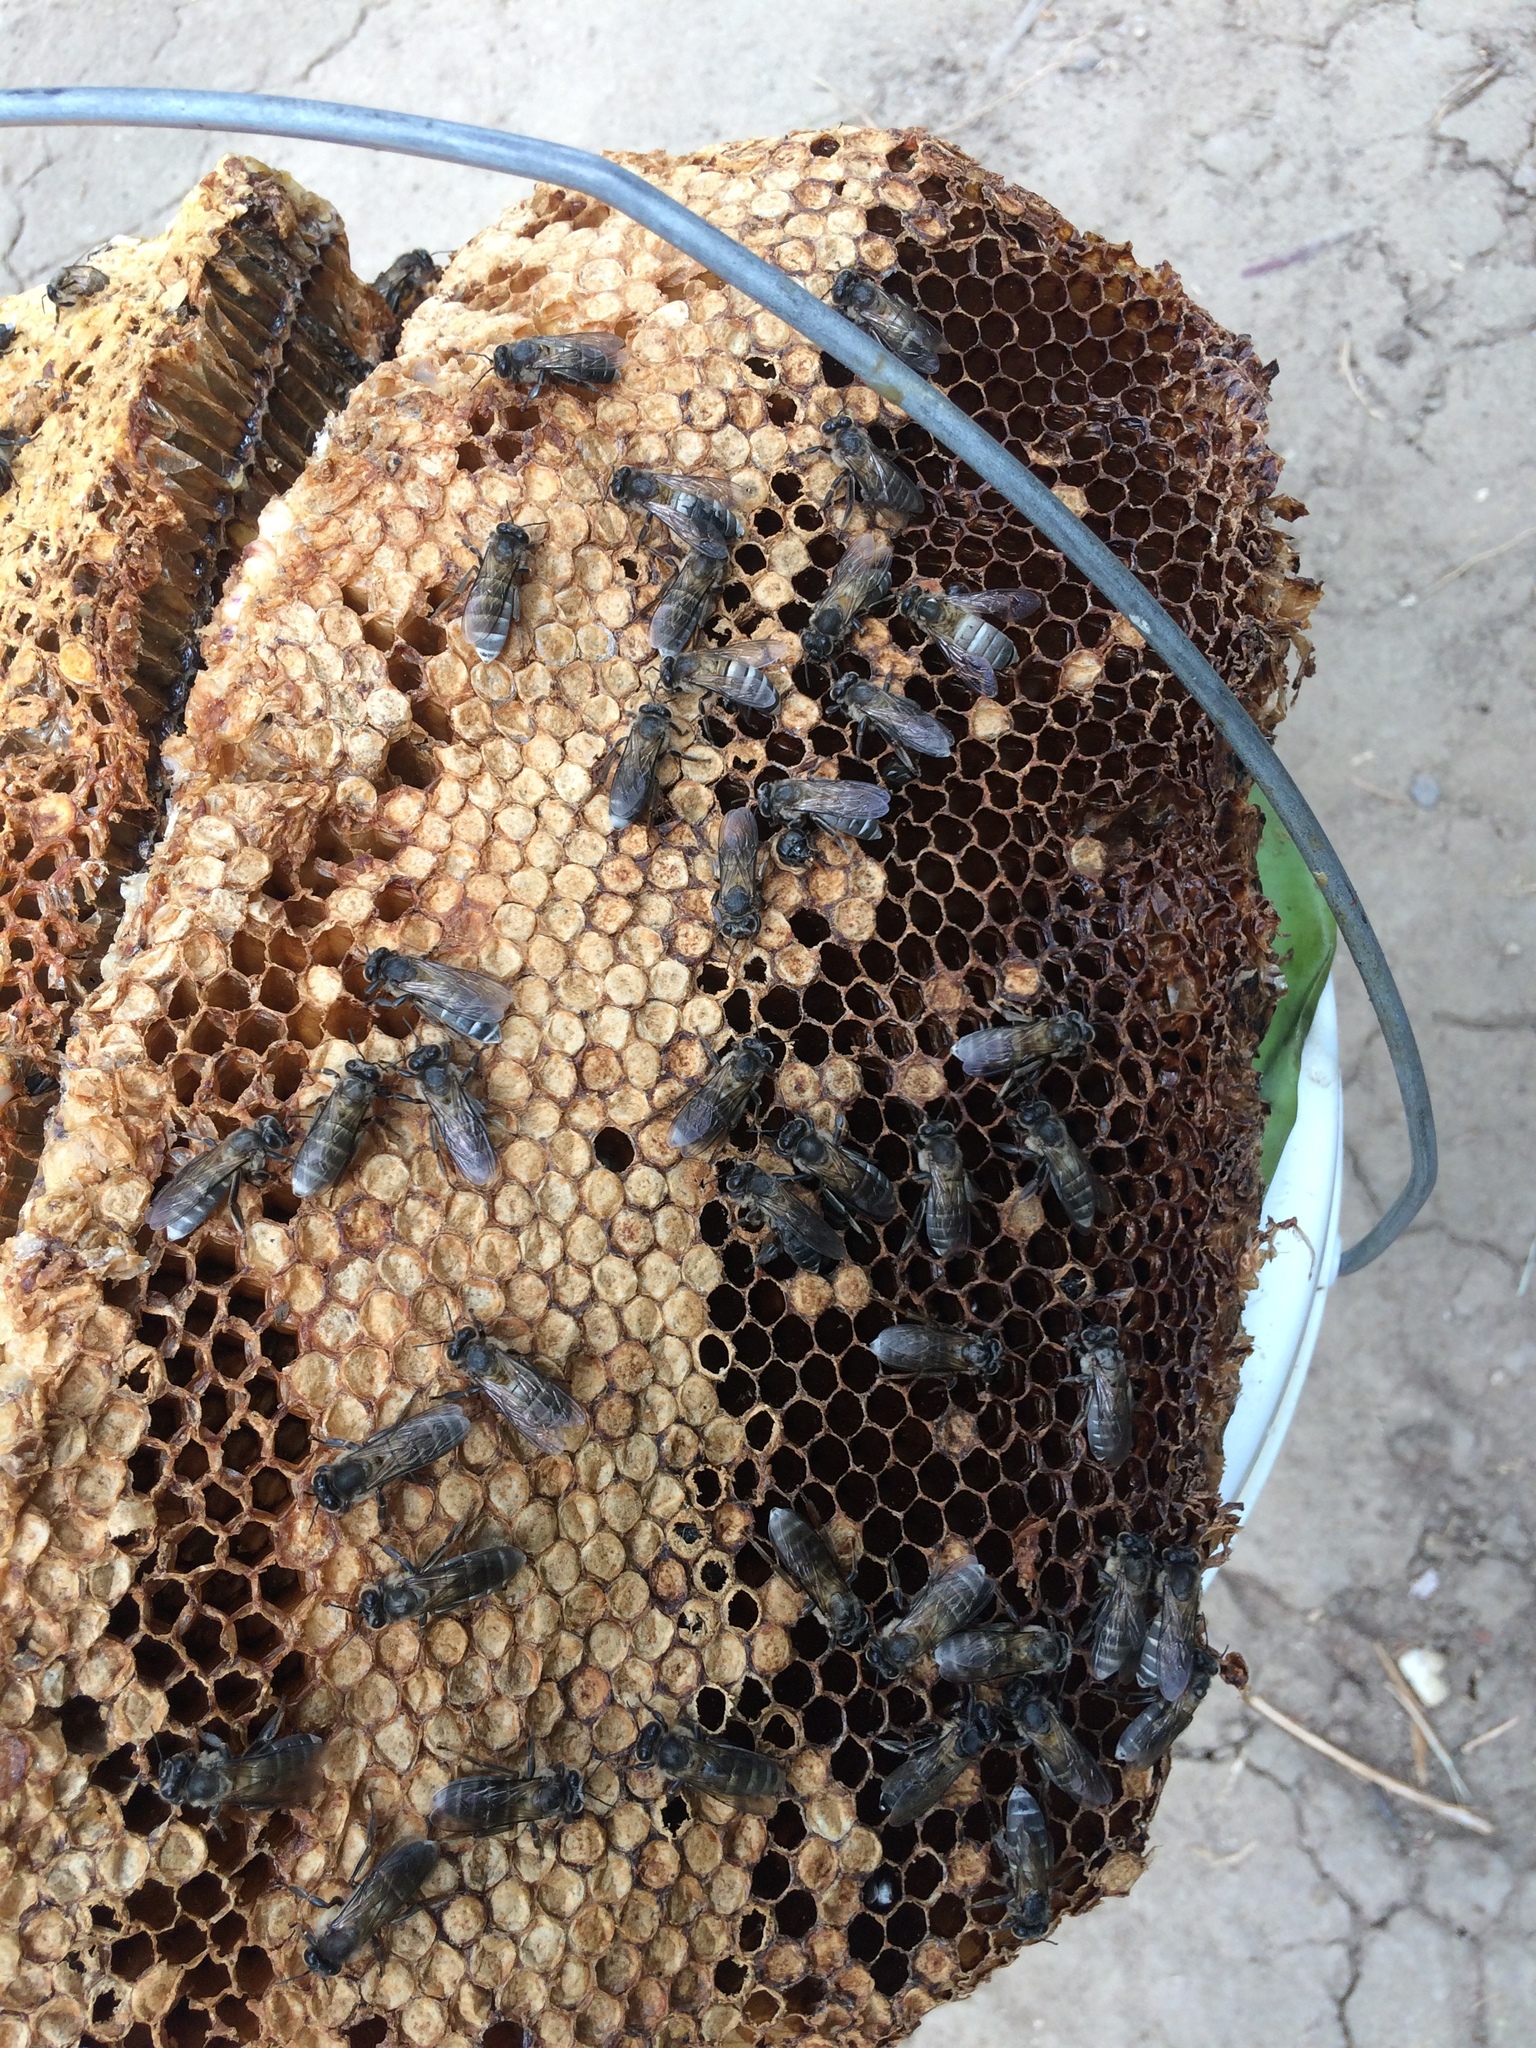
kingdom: Animalia
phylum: Arthropoda
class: Insecta
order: Hymenoptera
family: Apidae
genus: Apis
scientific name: Apis
